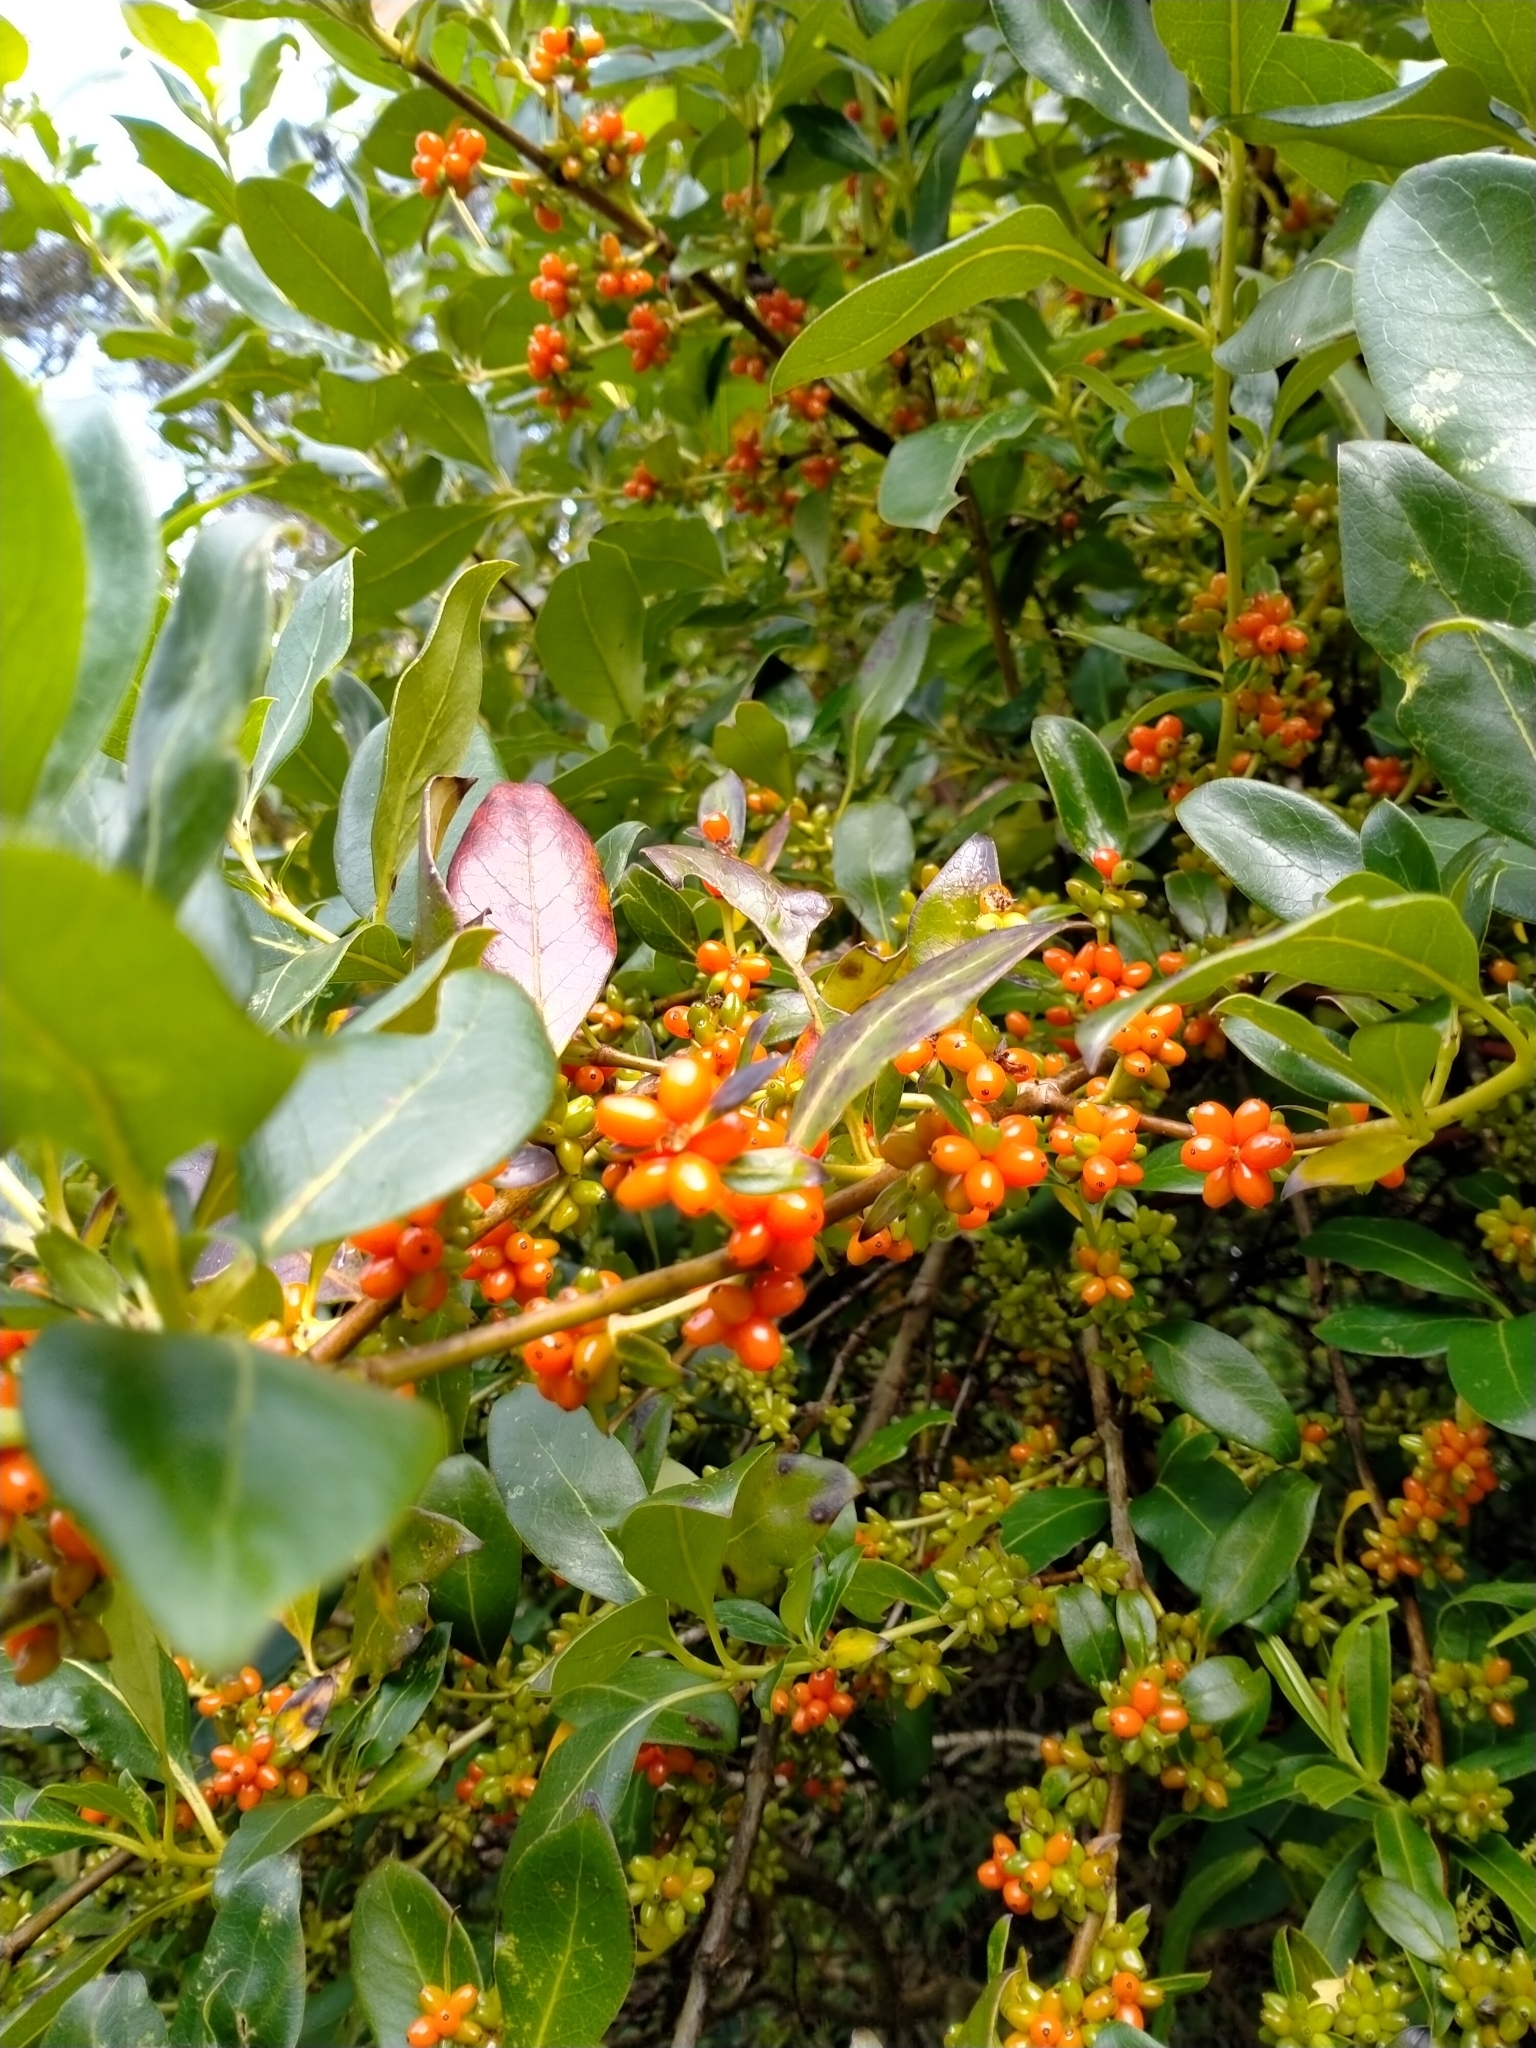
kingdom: Plantae
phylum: Tracheophyta
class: Magnoliopsida
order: Gentianales
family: Rubiaceae
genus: Coprosma
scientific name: Coprosma robusta
